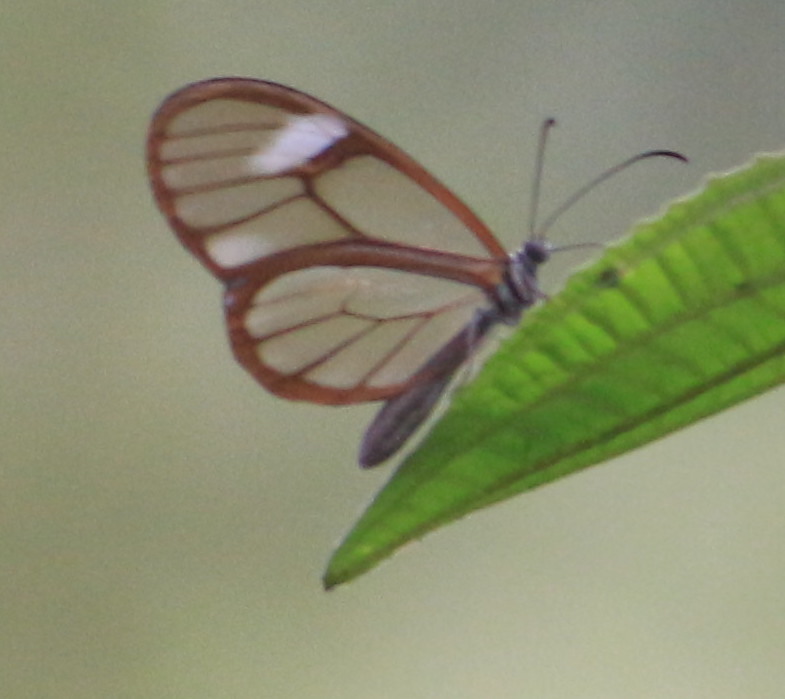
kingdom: Animalia
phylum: Arthropoda
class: Insecta
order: Lepidoptera
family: Nymphalidae
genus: Episcada
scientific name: Episcada salvinia
